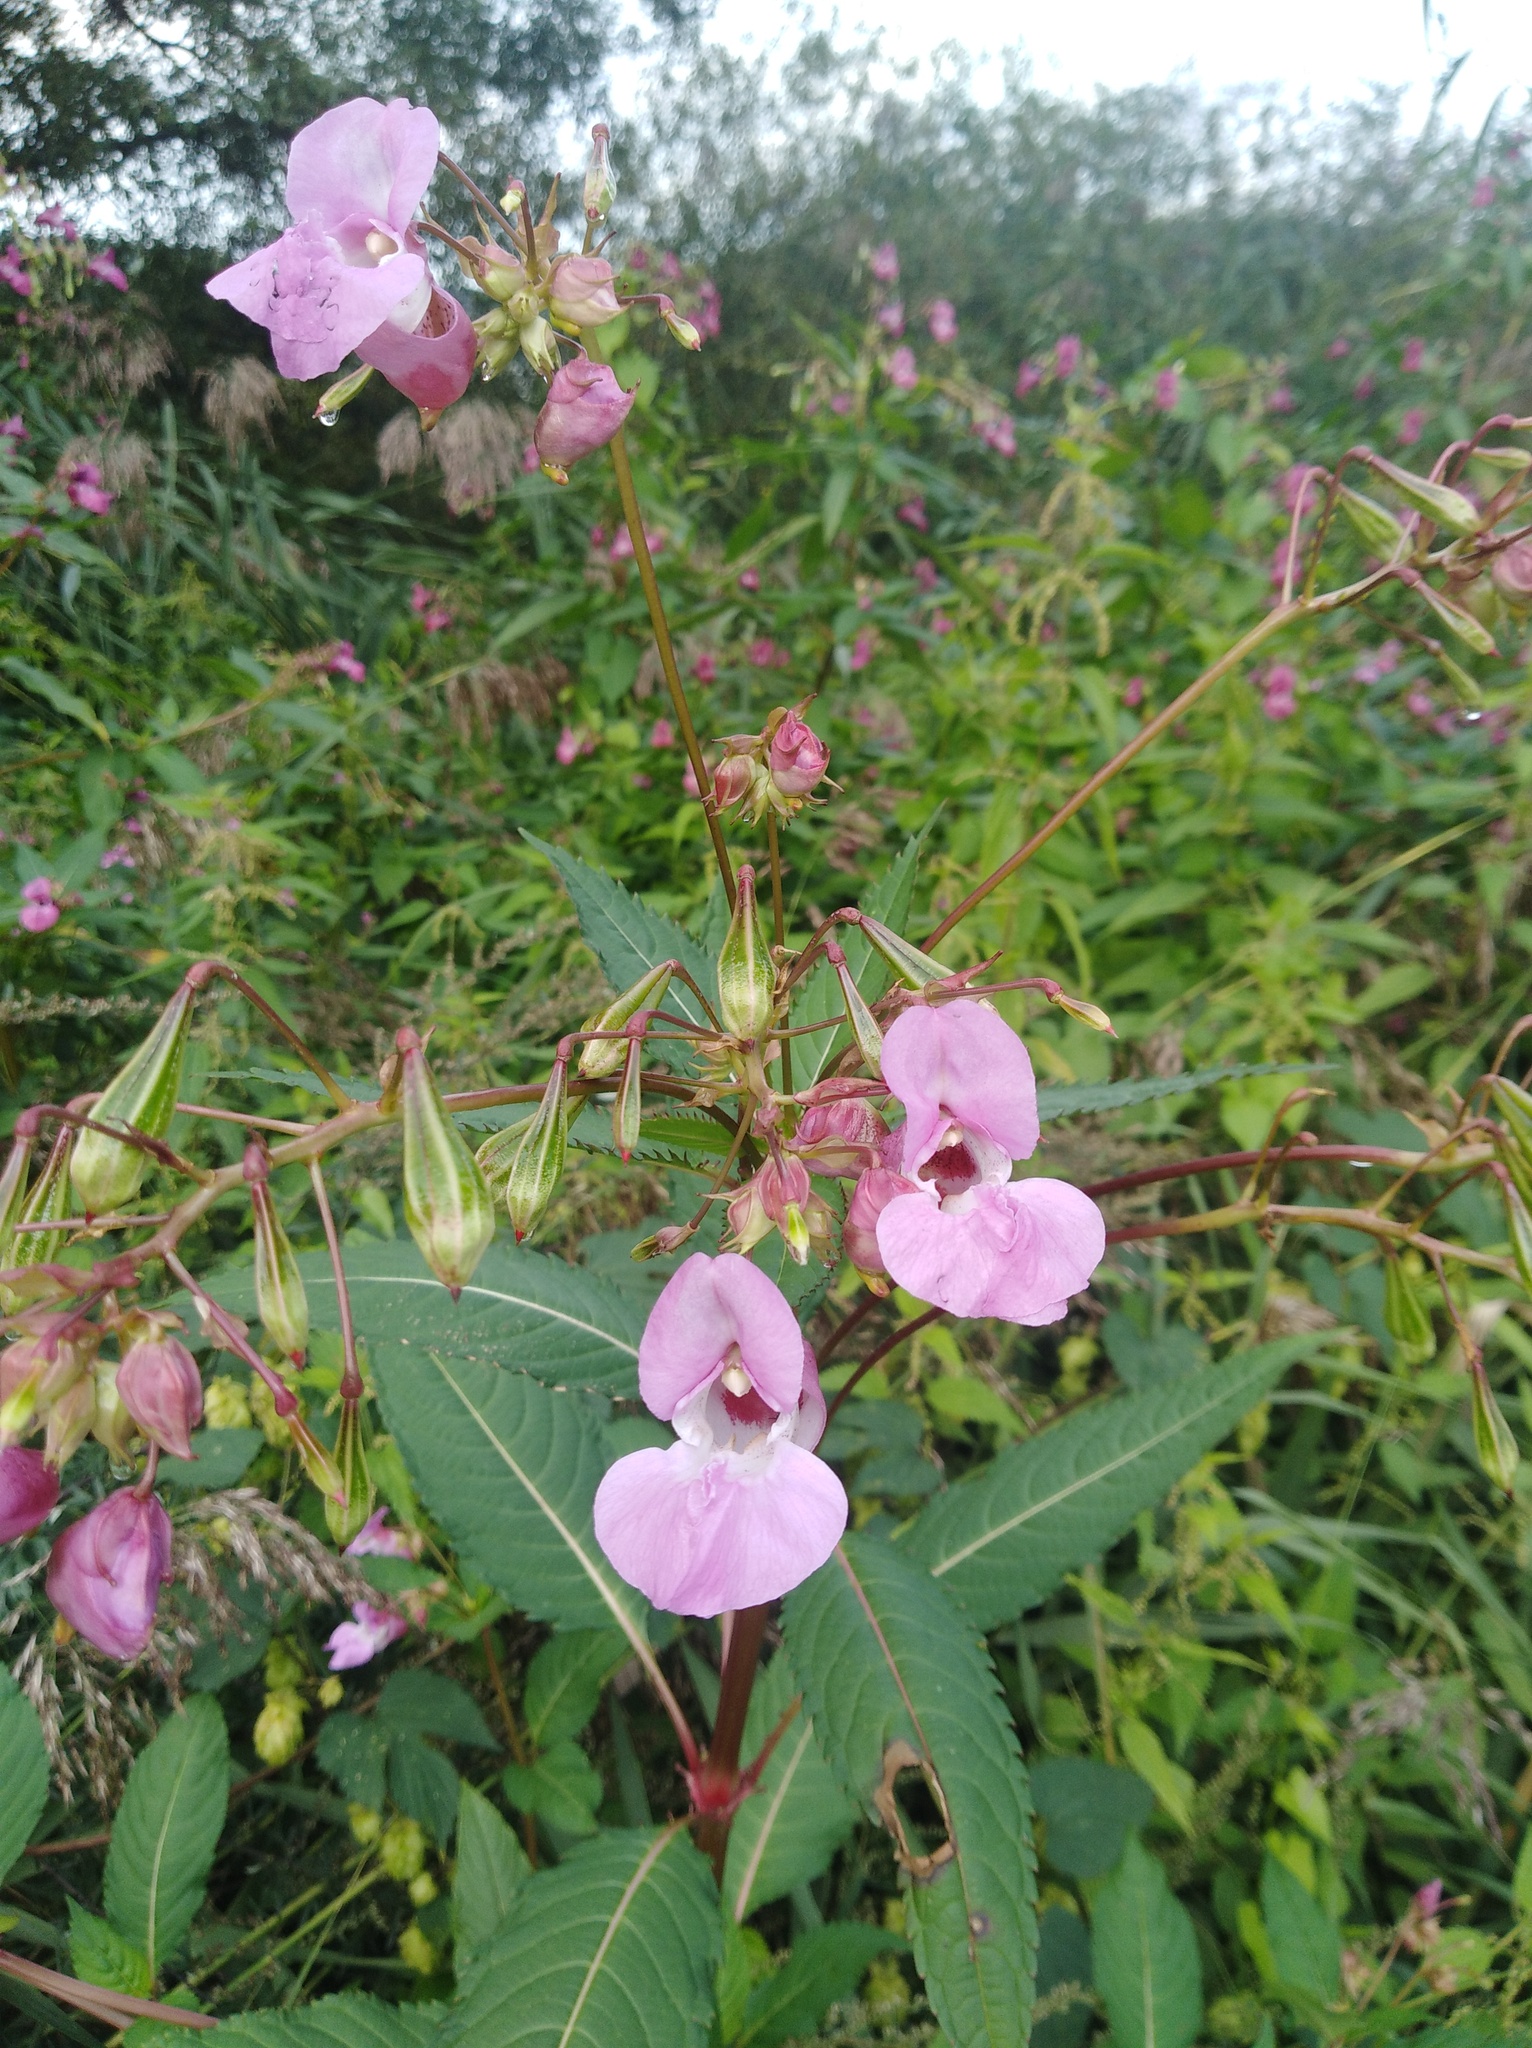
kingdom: Plantae
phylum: Tracheophyta
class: Magnoliopsida
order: Ericales
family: Balsaminaceae
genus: Impatiens
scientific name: Impatiens glandulifera
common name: Himalayan balsam
